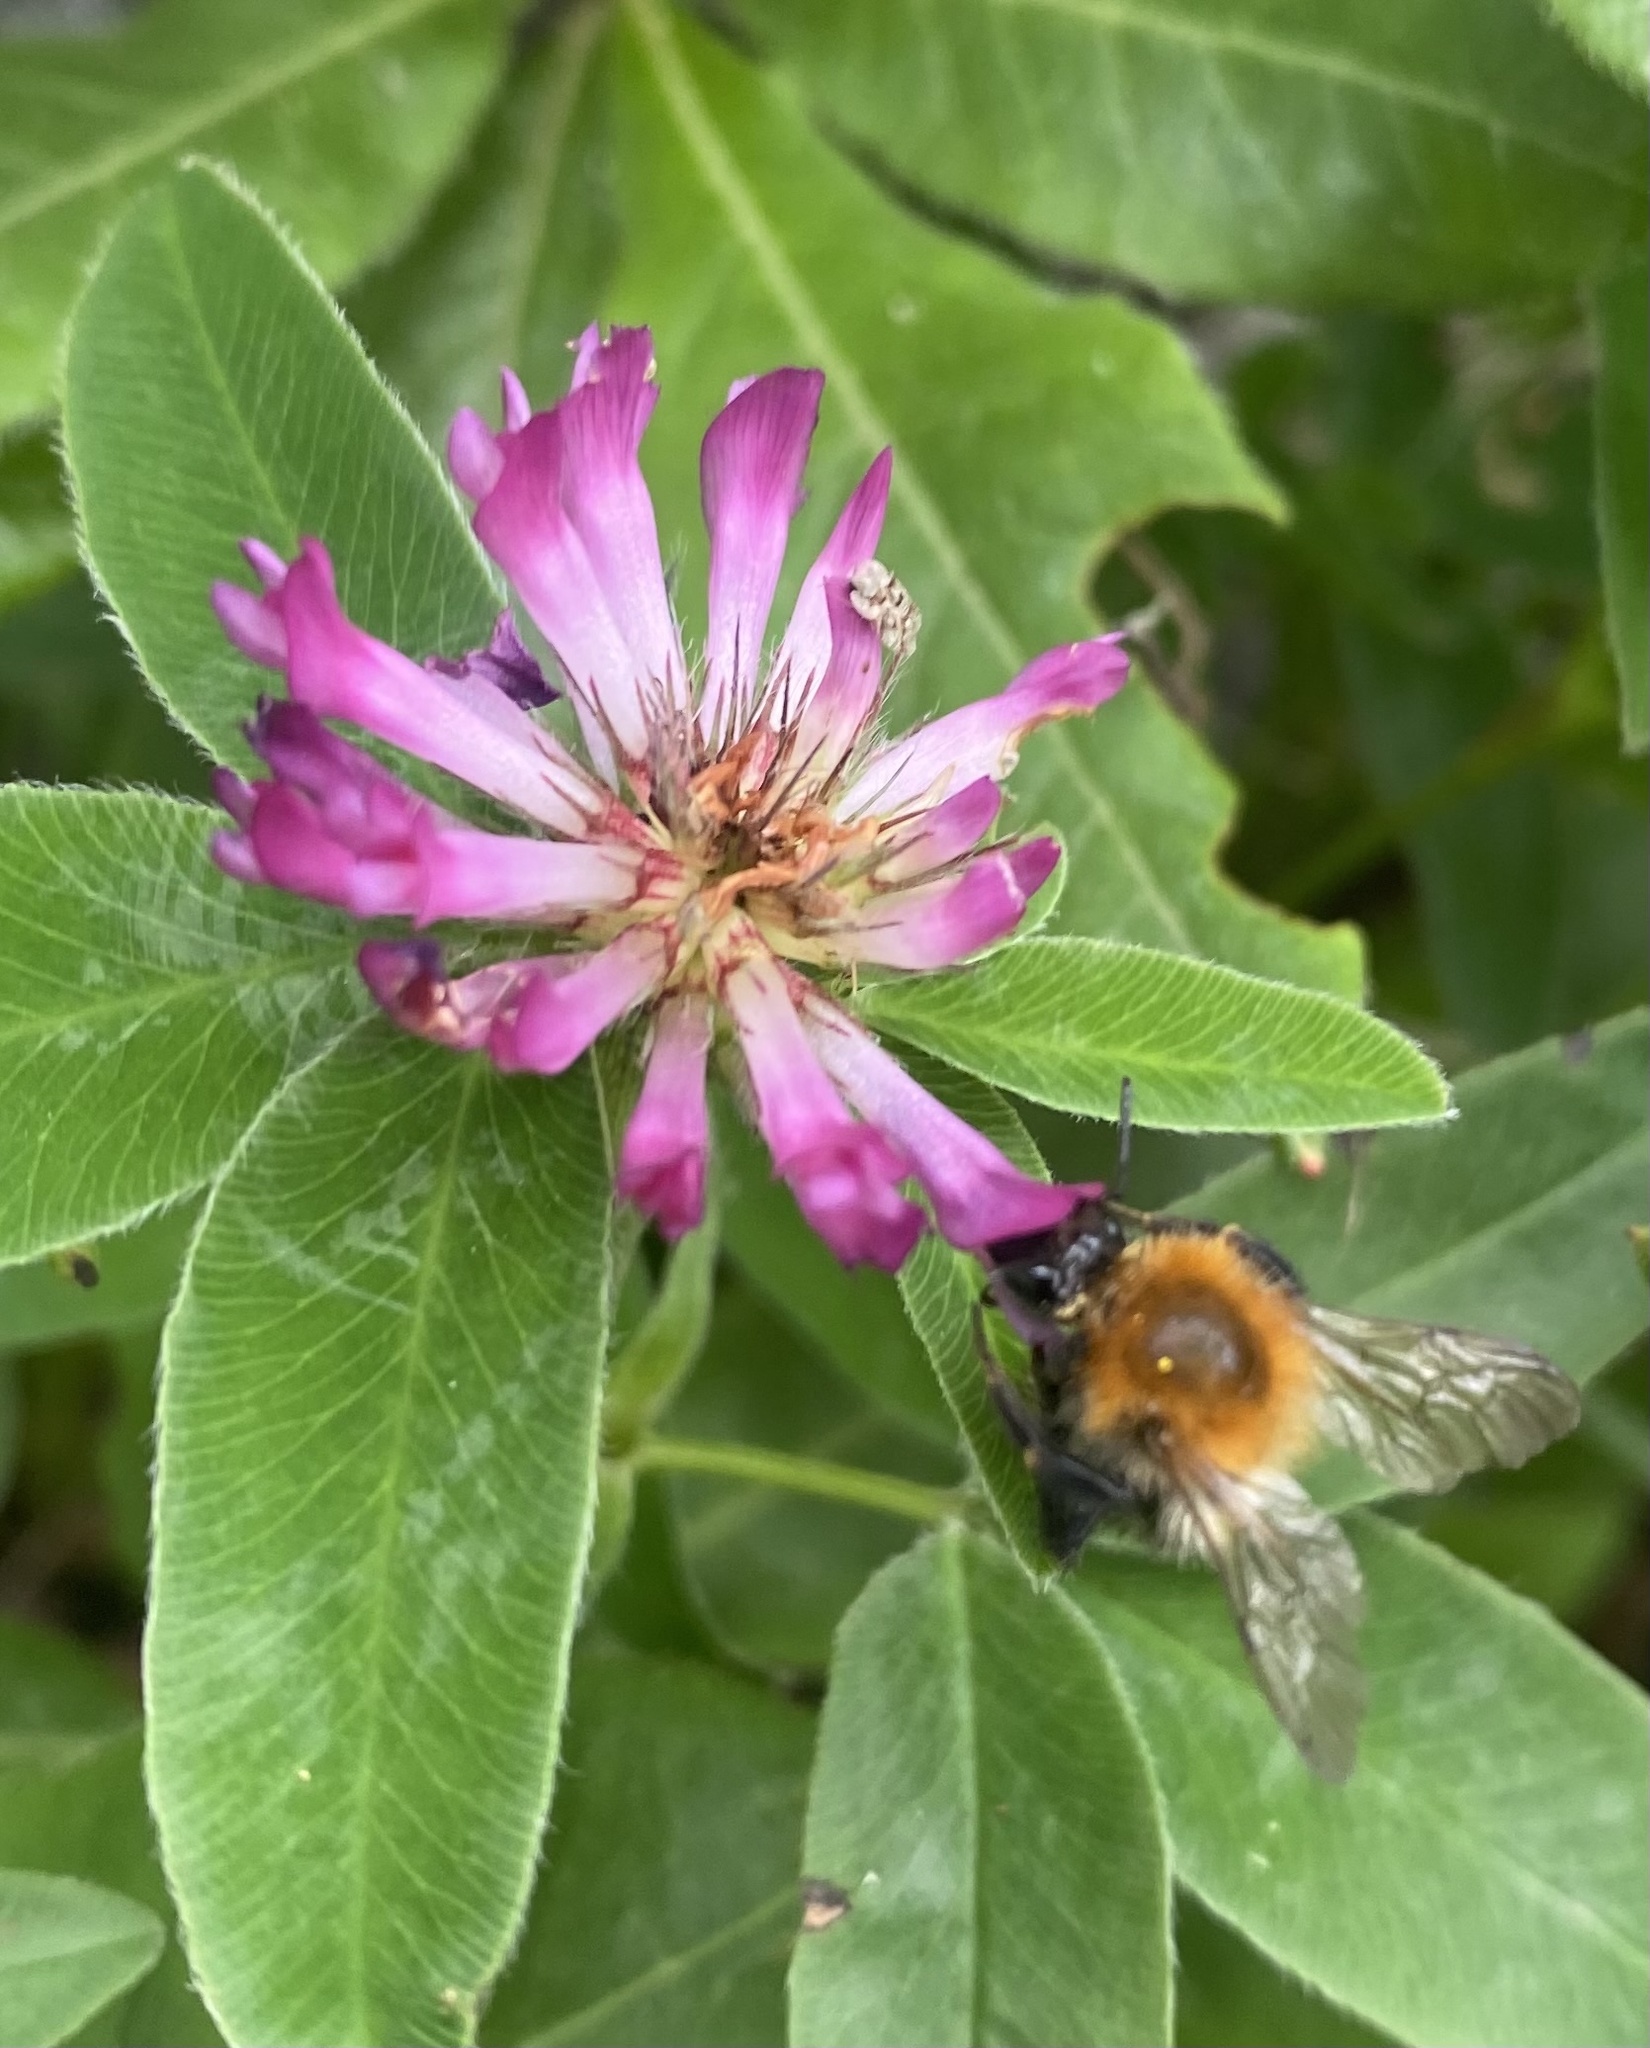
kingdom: Animalia
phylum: Arthropoda
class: Insecta
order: Hymenoptera
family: Apidae
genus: Bombus
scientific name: Bombus pascuorum
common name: Common carder bee
